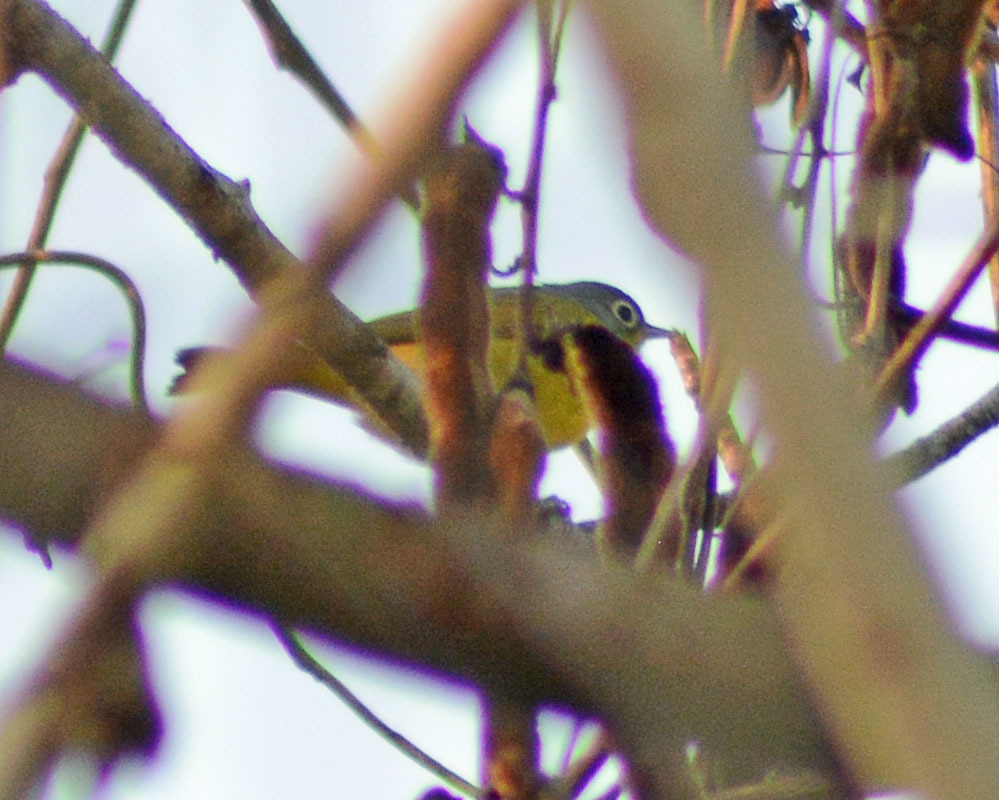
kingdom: Animalia
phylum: Chordata
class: Aves
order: Passeriformes
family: Parulidae
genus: Leiothlypis
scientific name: Leiothlypis ruficapilla
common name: Nashville warbler
